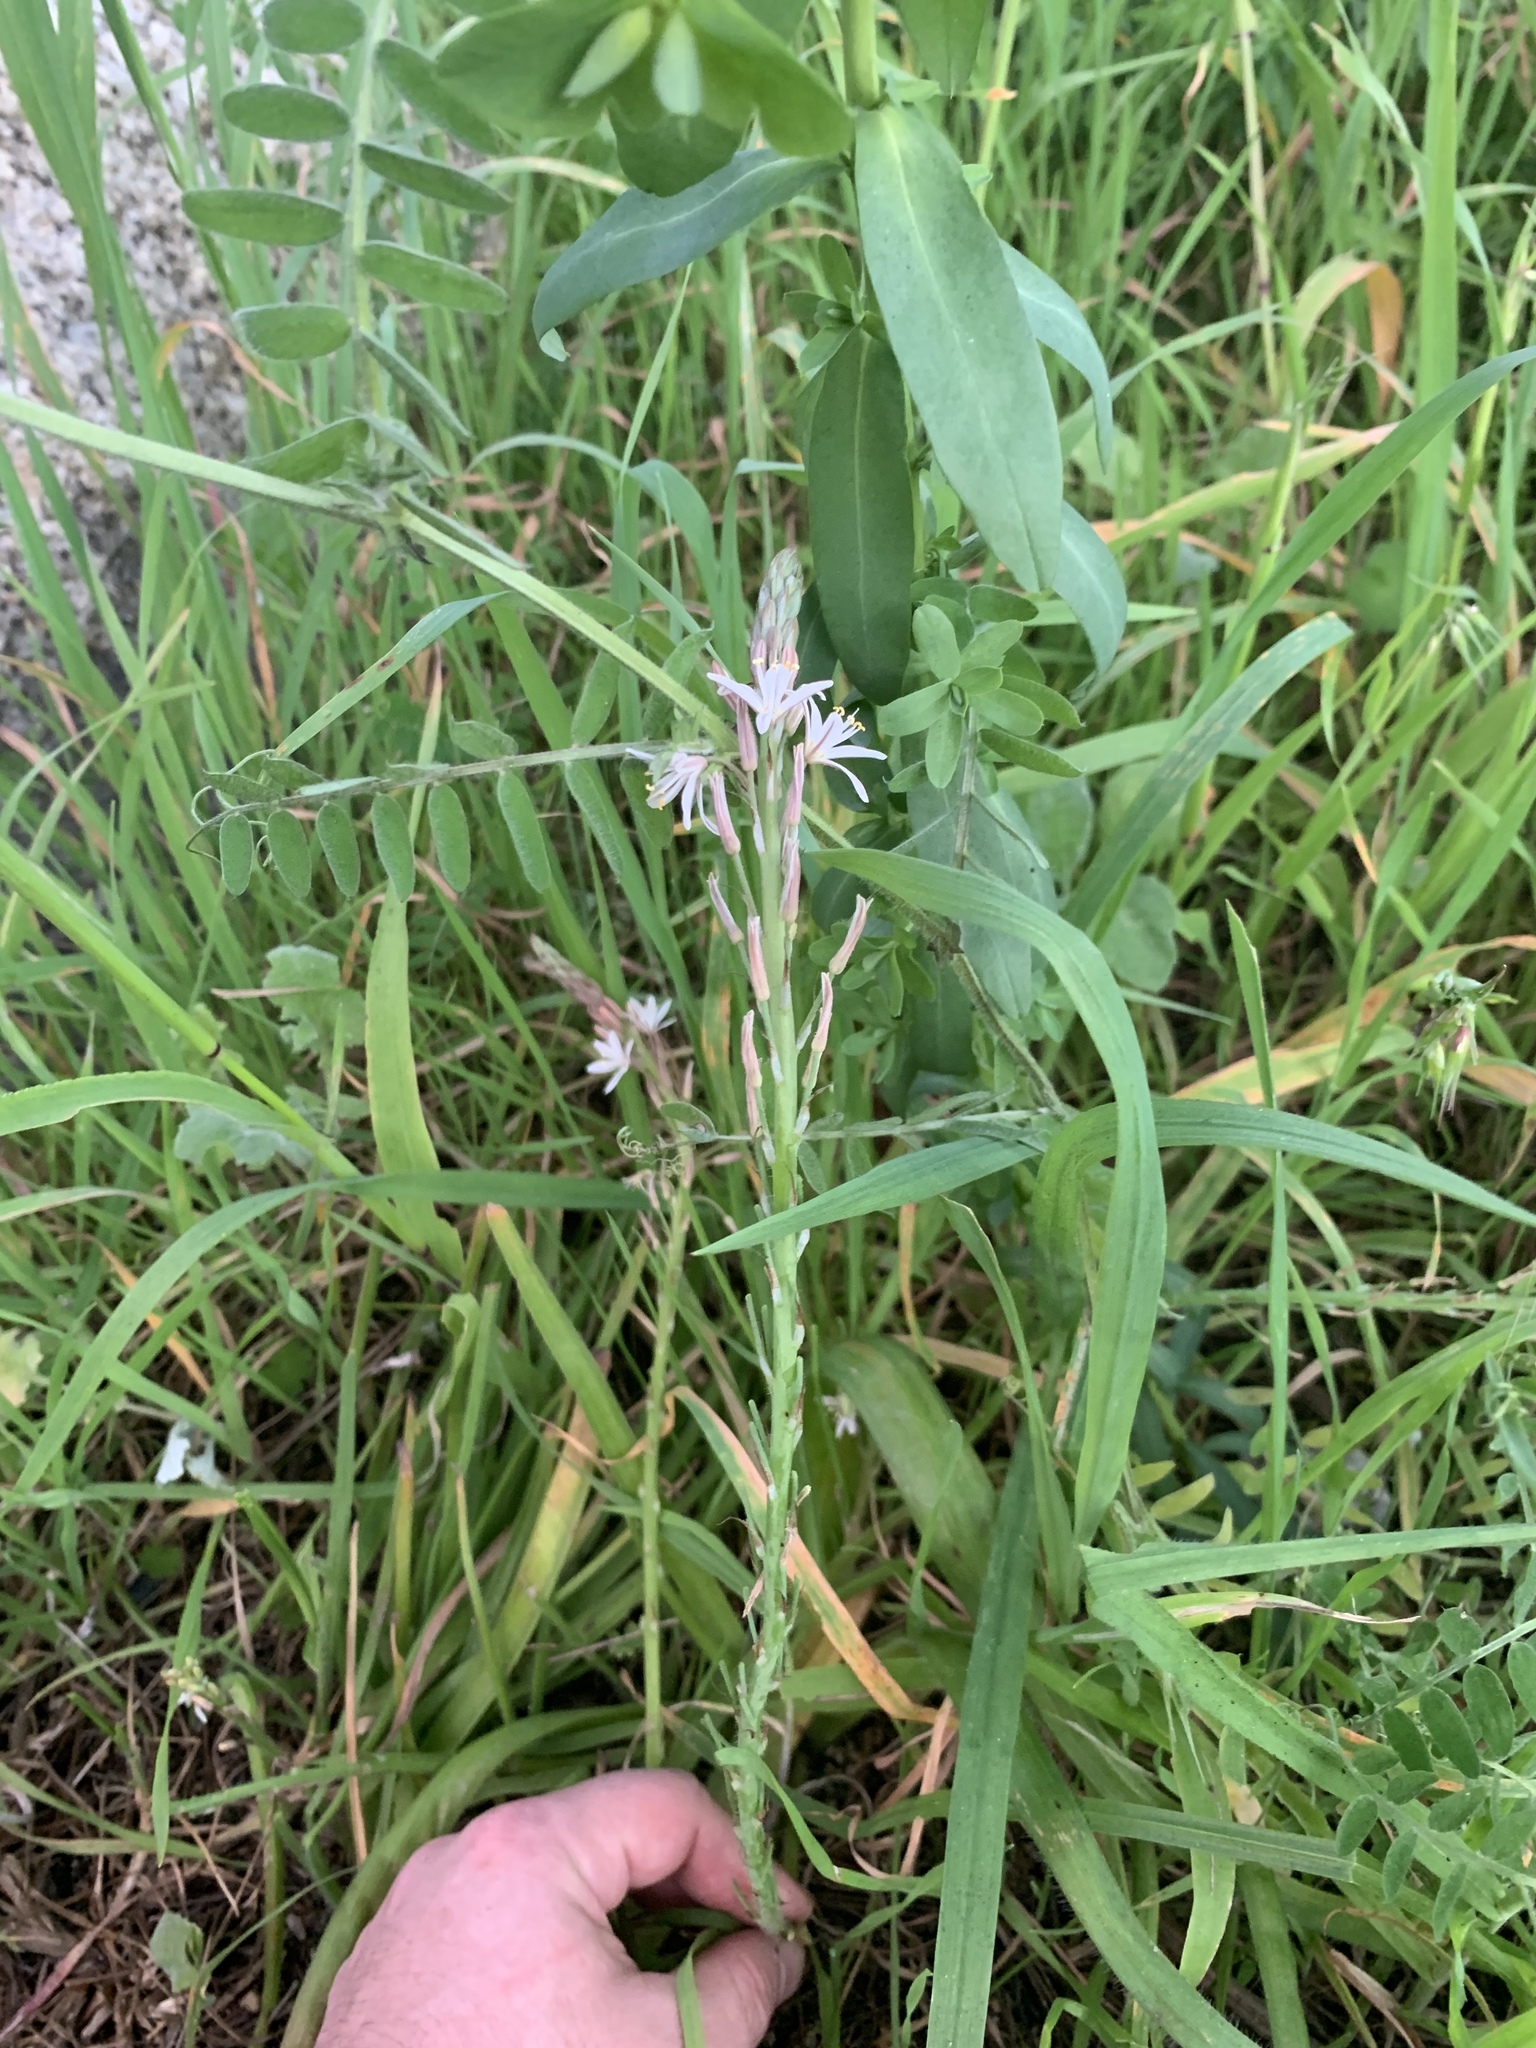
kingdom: Plantae
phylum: Tracheophyta
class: Liliopsida
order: Asparagales
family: Asphodelaceae
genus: Trachyandra
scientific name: Trachyandra ciliata
